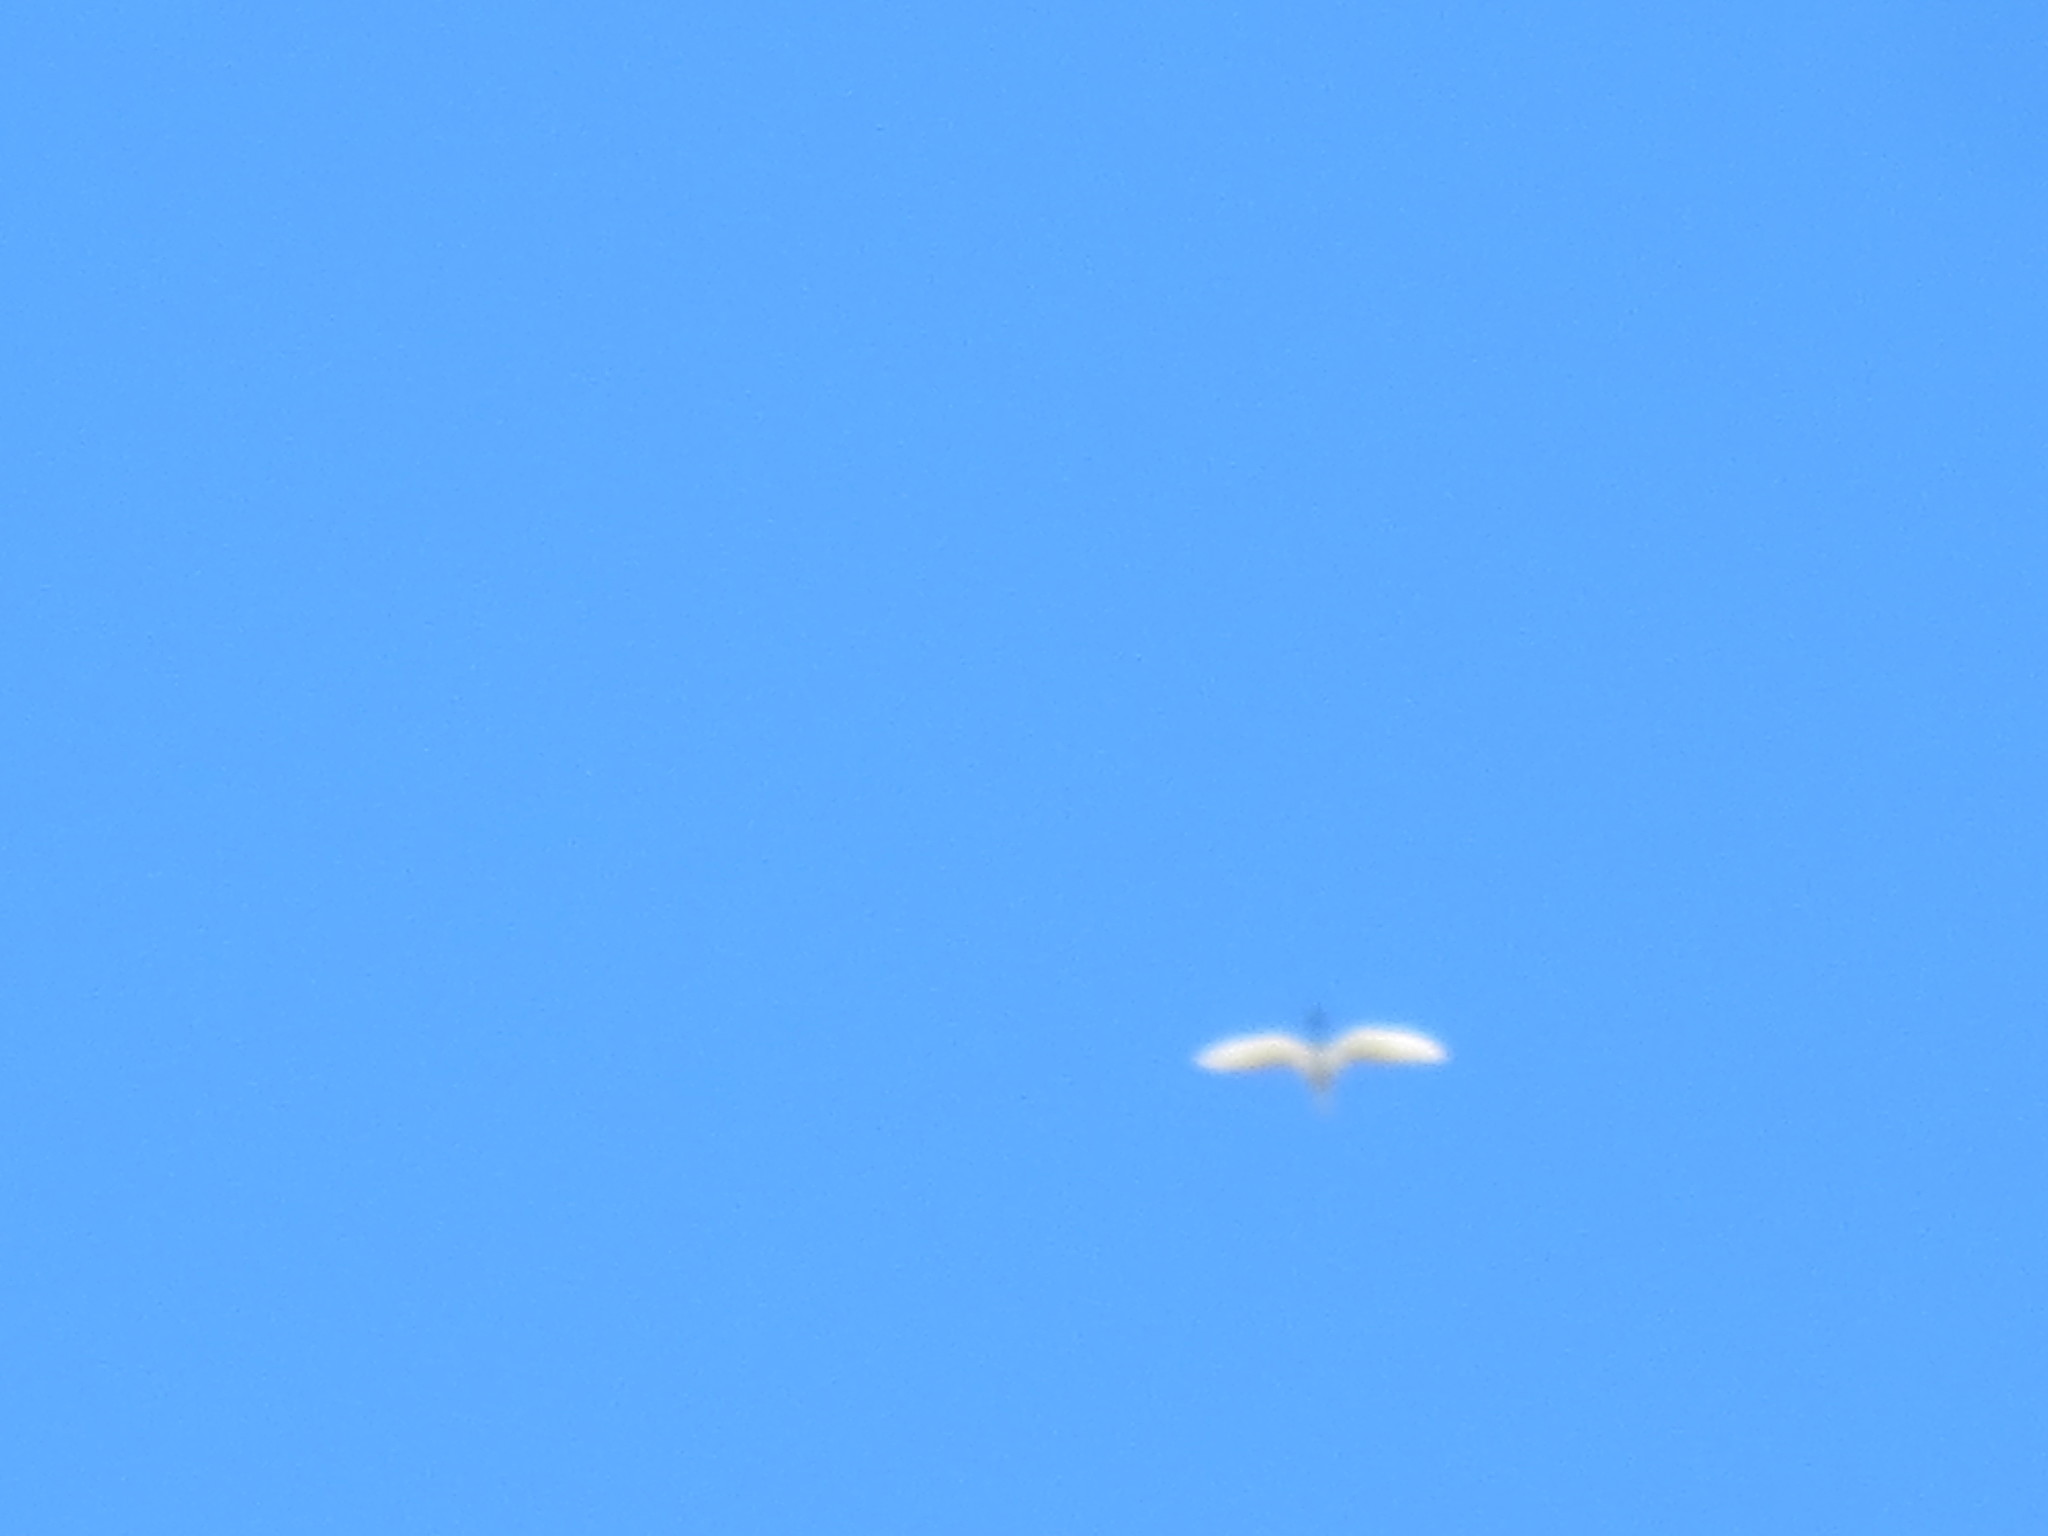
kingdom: Animalia
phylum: Chordata
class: Aves
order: Pelecaniformes
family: Ardeidae
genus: Ardea
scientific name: Ardea alba
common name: Great egret
